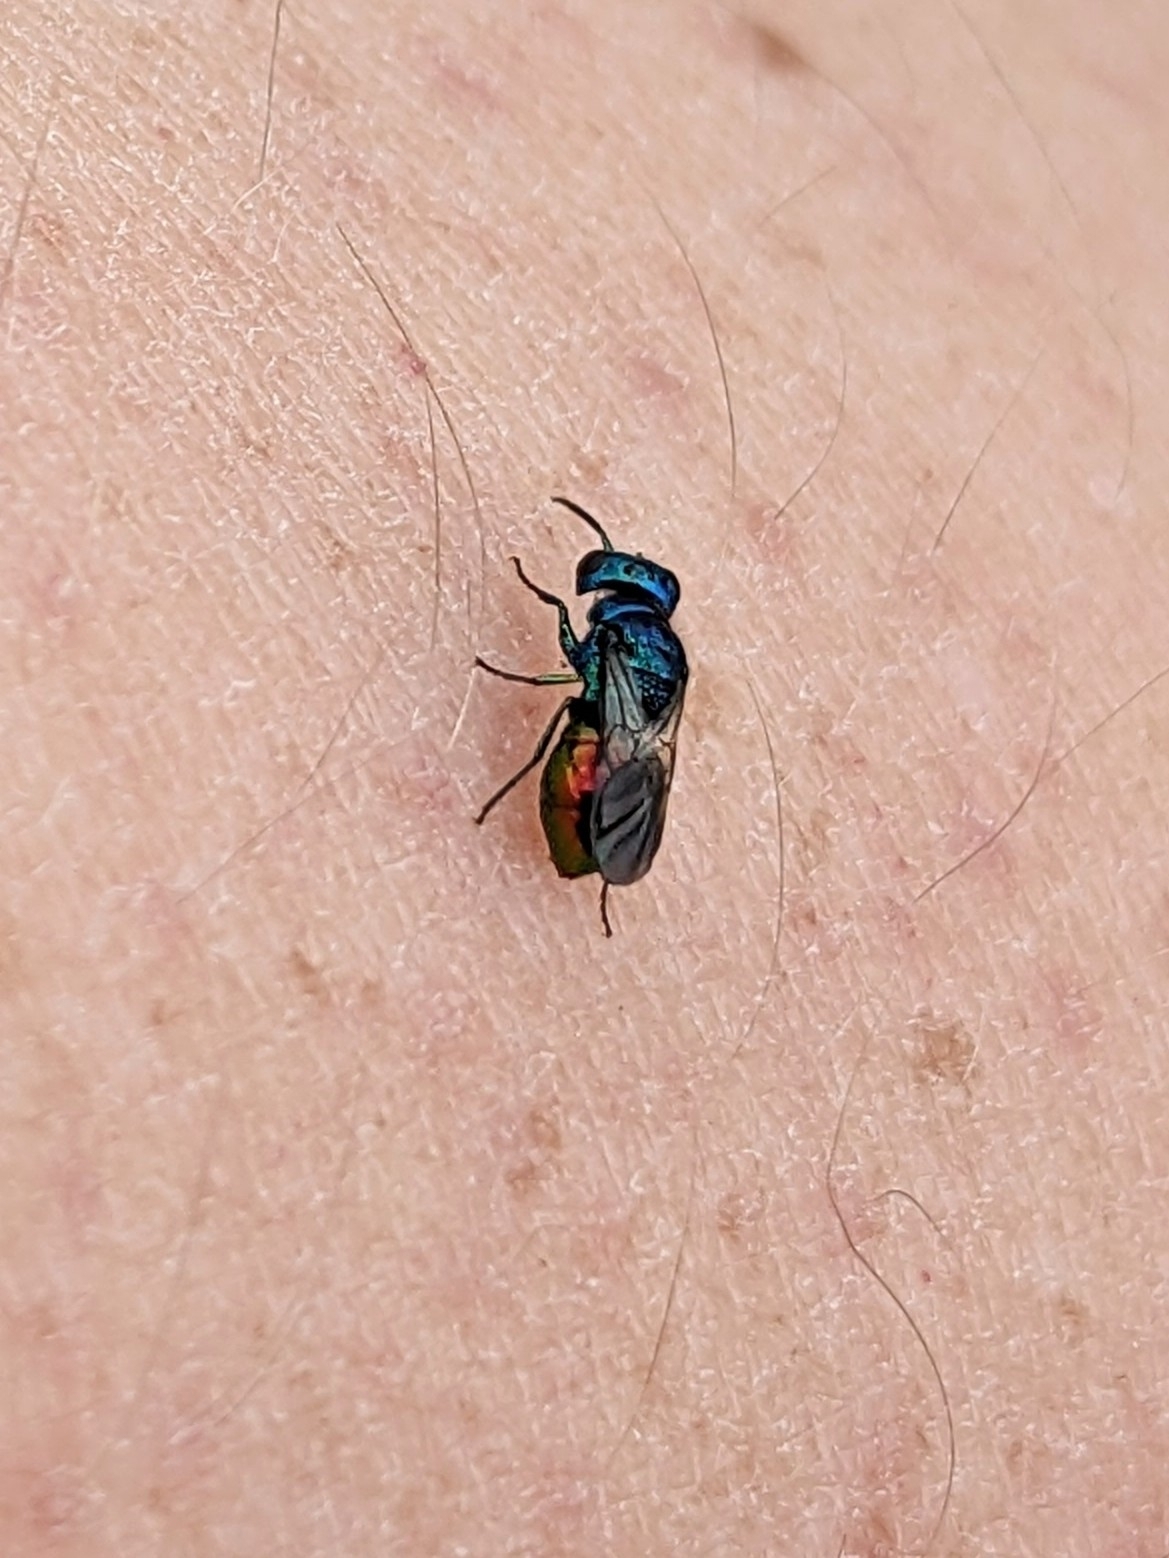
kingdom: Animalia
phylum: Arthropoda
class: Insecta
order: Hymenoptera
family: Chrysididae
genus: Pseudomalus
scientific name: Pseudomalus auratus
